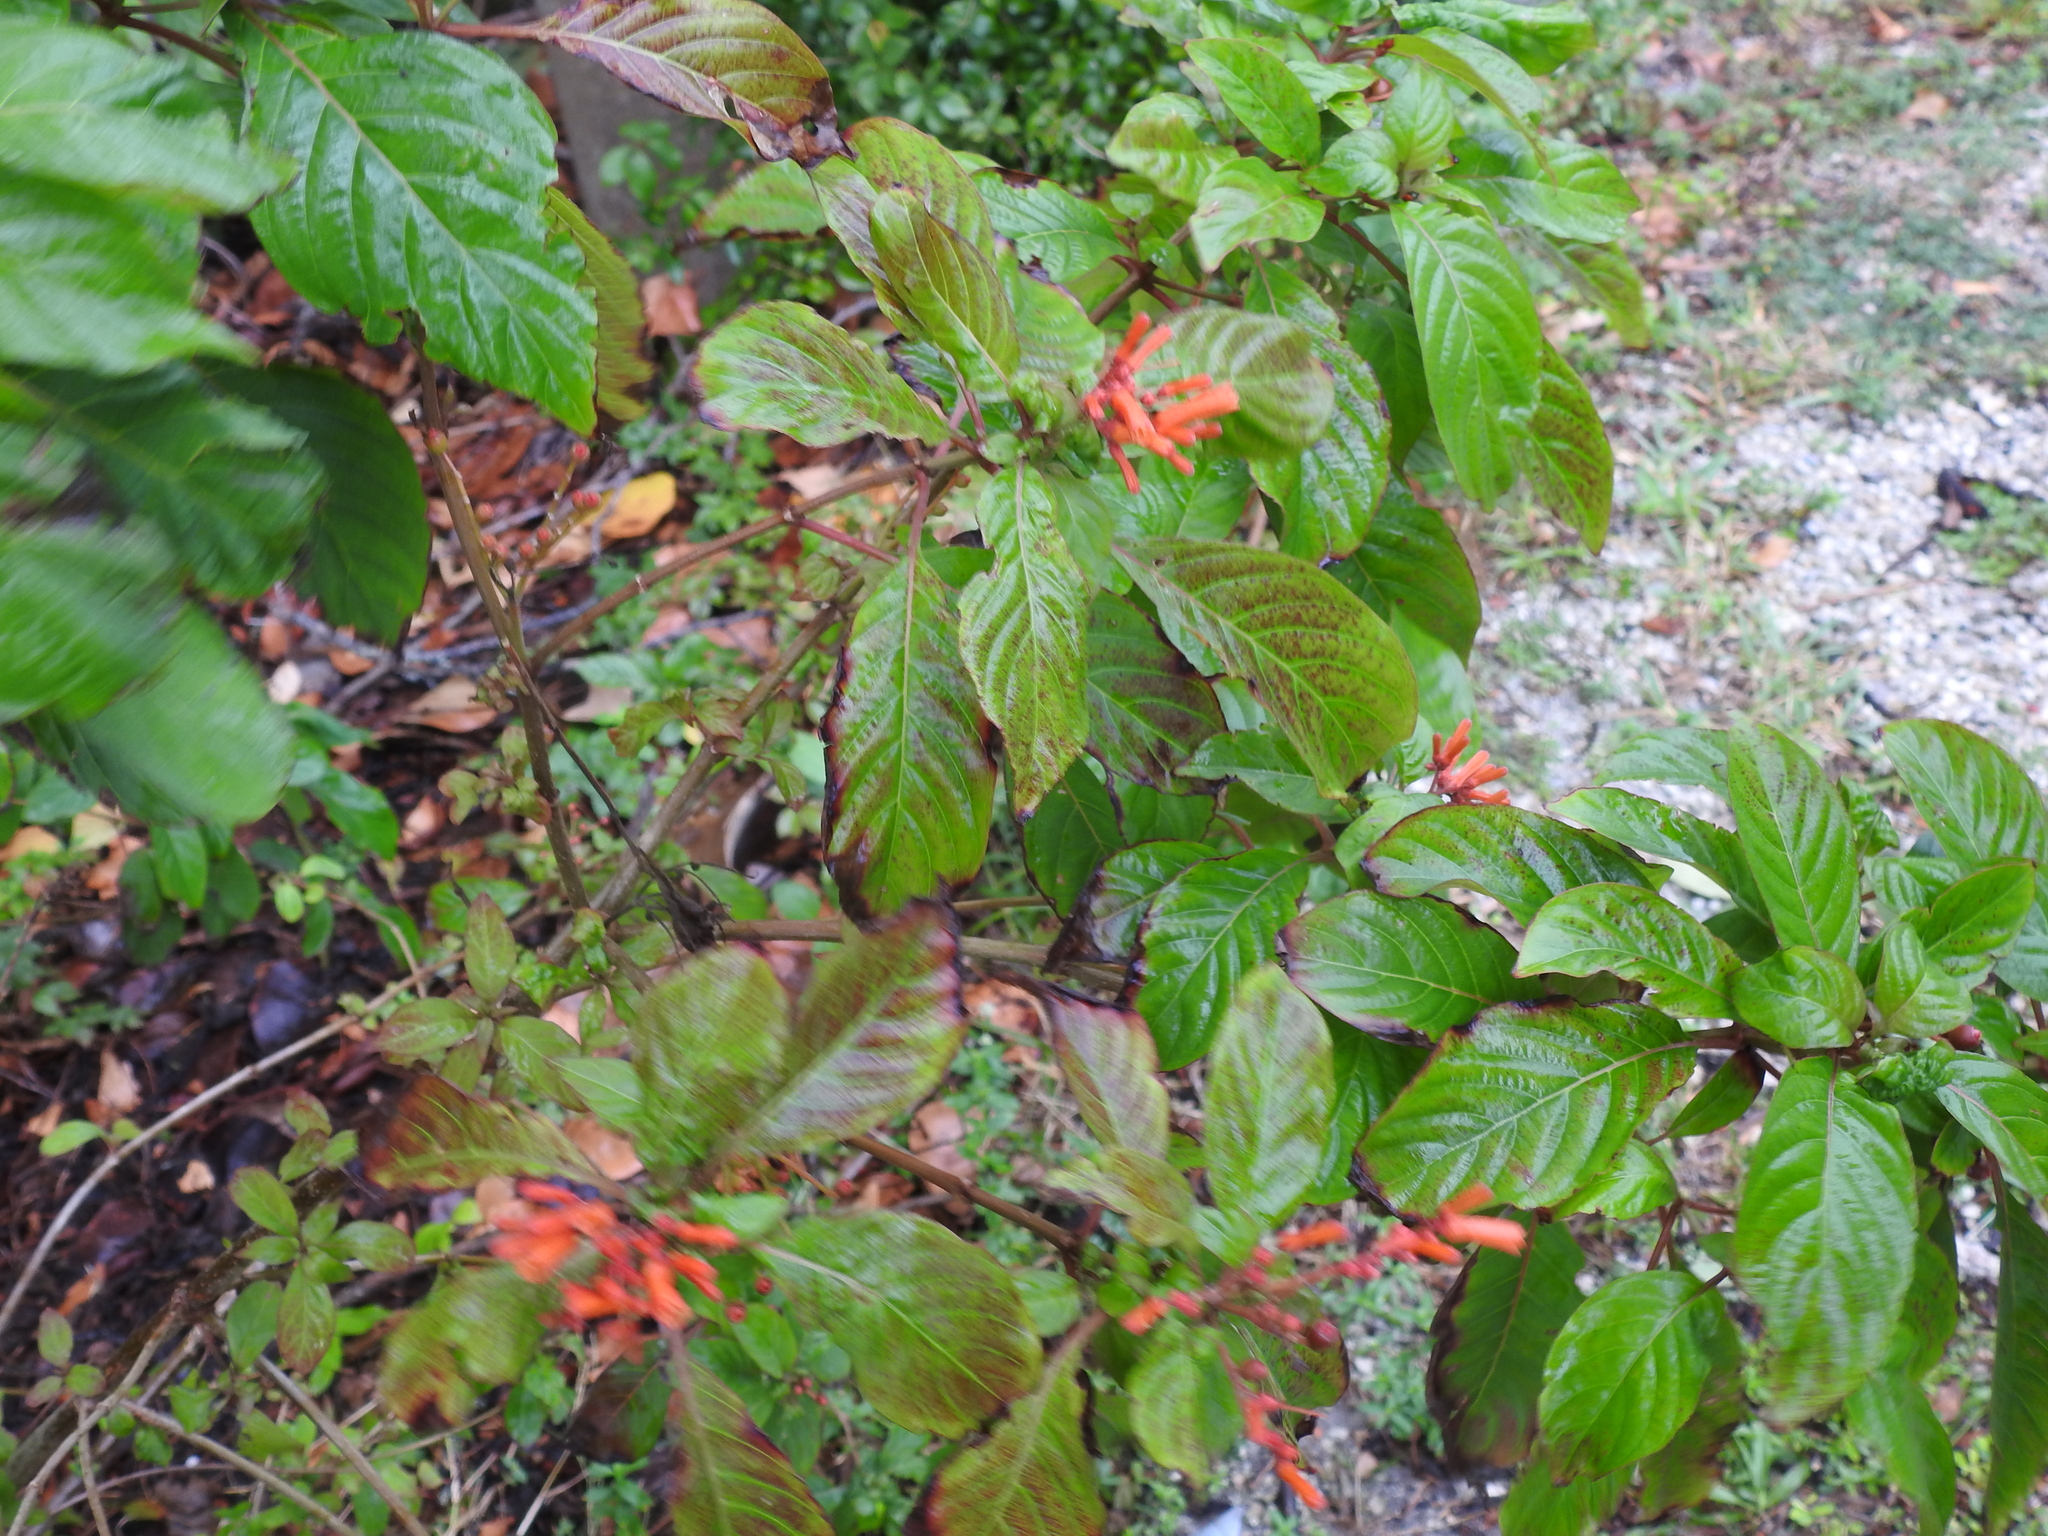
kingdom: Plantae
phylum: Tracheophyta
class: Magnoliopsida
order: Gentianales
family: Rubiaceae
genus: Hamelia
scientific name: Hamelia patens
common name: Redhead
